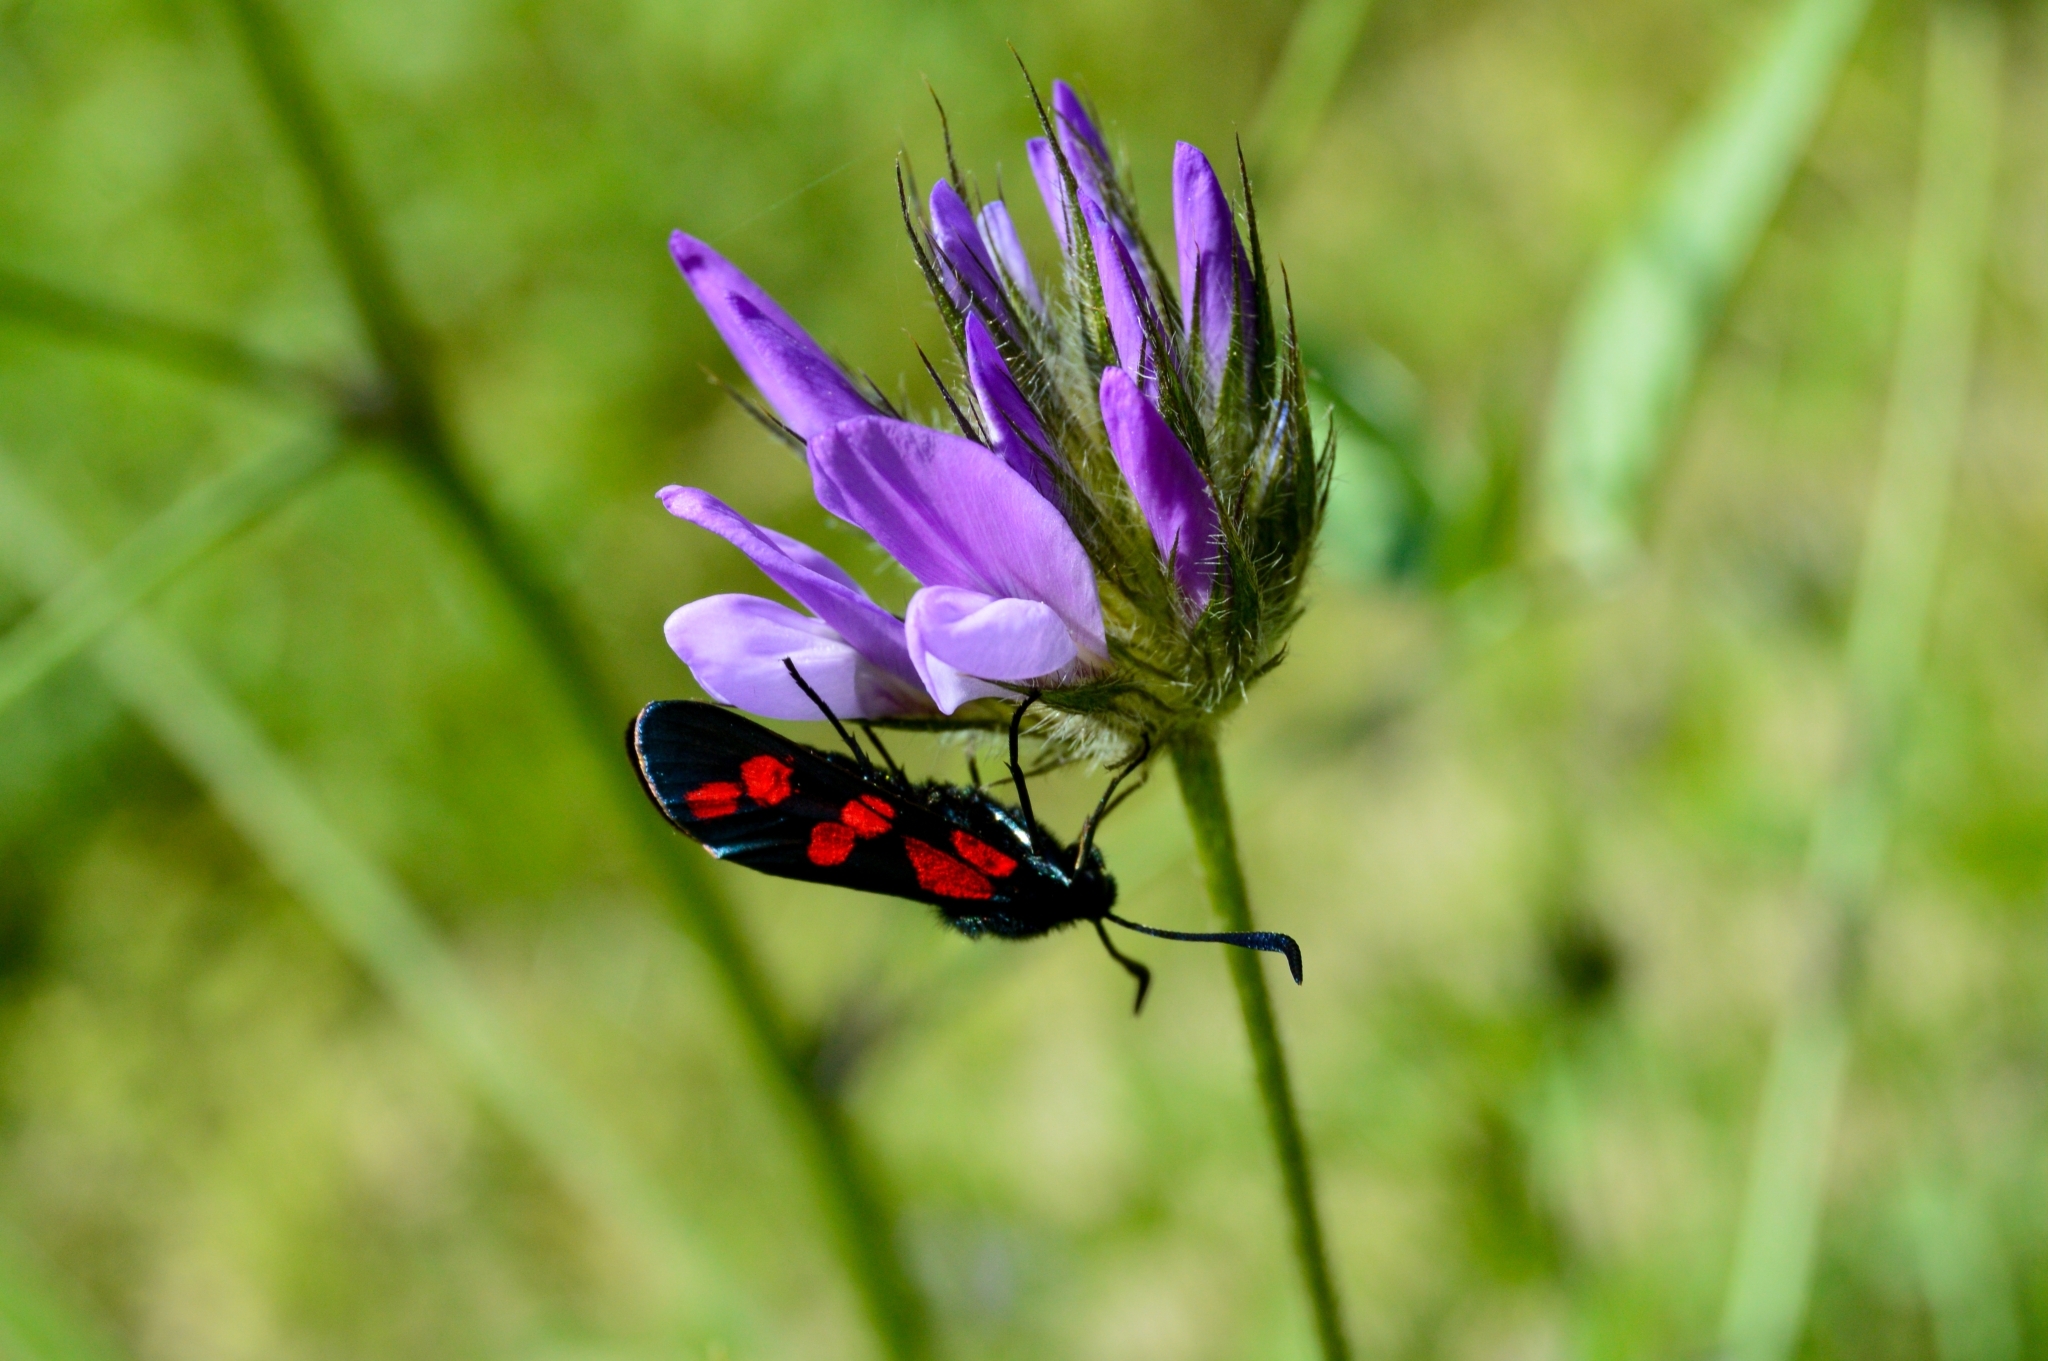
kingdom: Animalia
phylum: Arthropoda
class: Insecta
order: Lepidoptera
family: Zygaenidae
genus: Zygaena
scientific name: Zygaena filipendulae
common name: Six-spot burnet
